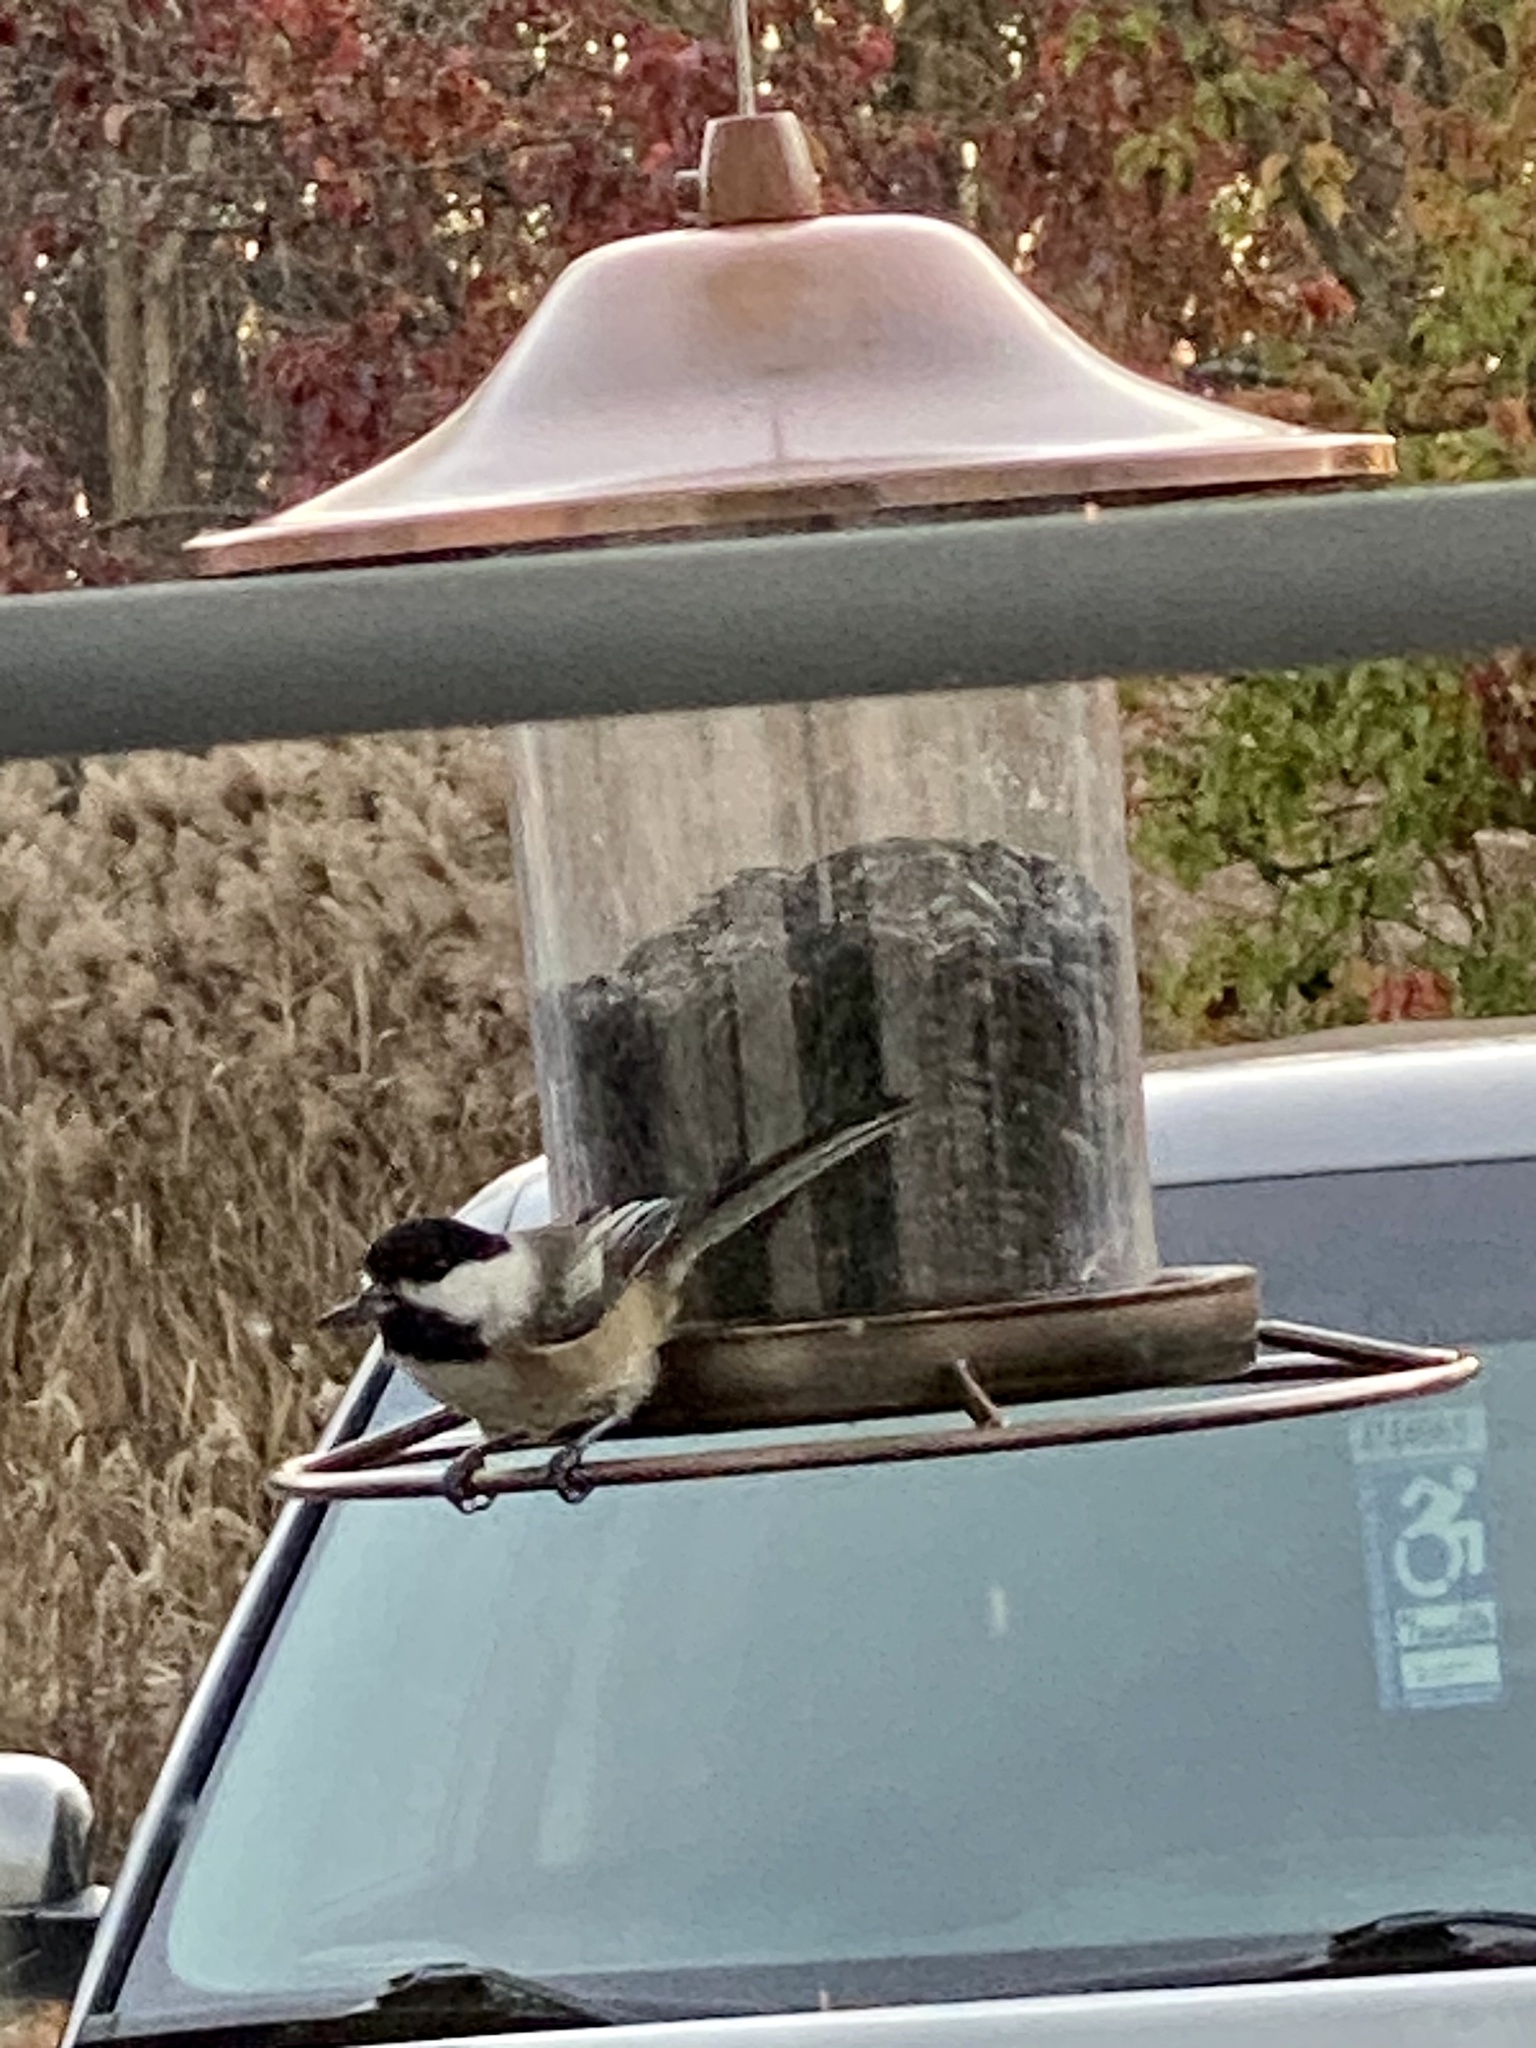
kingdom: Animalia
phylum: Chordata
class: Aves
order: Passeriformes
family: Paridae
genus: Poecile
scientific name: Poecile atricapillus
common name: Black-capped chickadee
